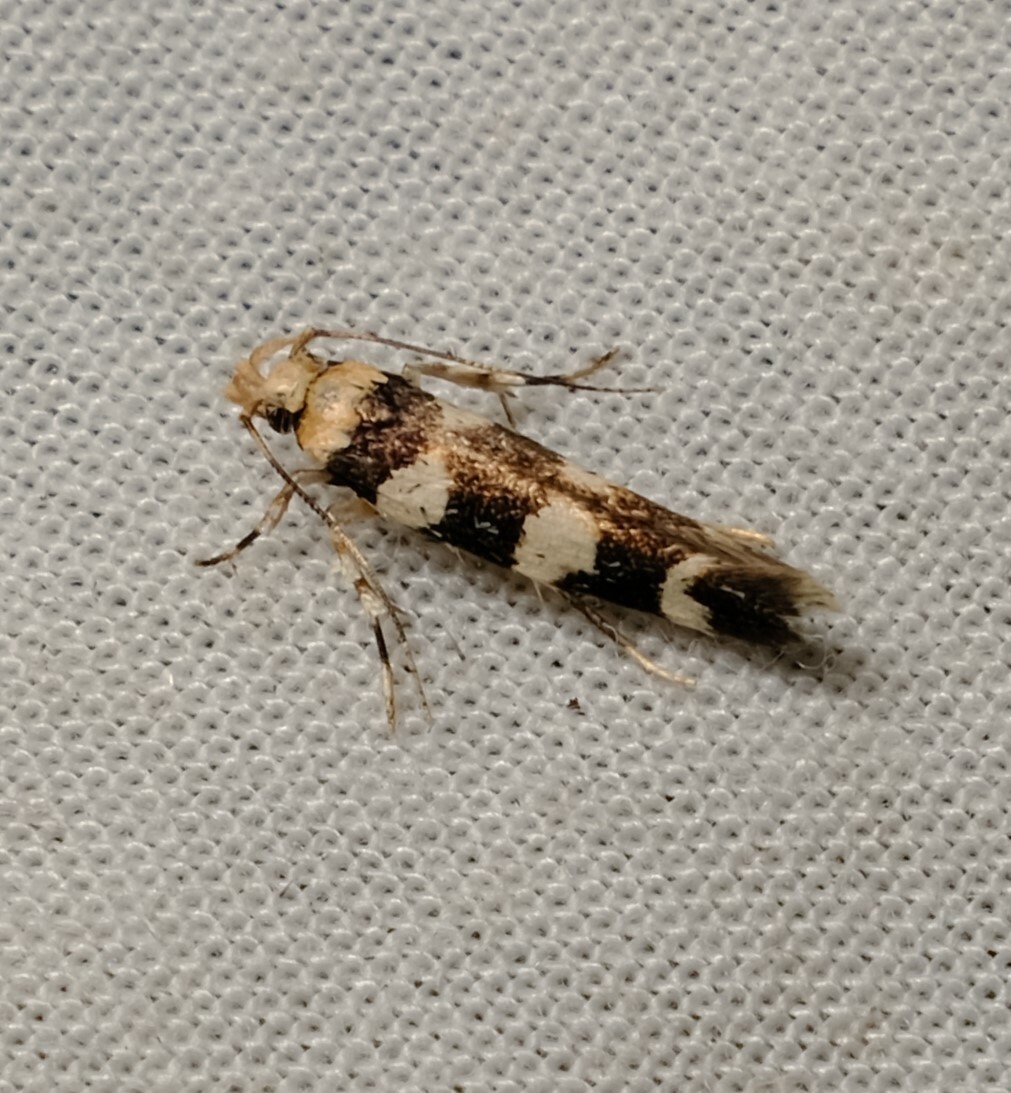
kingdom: Animalia
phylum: Arthropoda
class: Insecta
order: Lepidoptera
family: Cosmopterigidae
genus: Limnaecia
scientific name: Limnaecia camptosema
